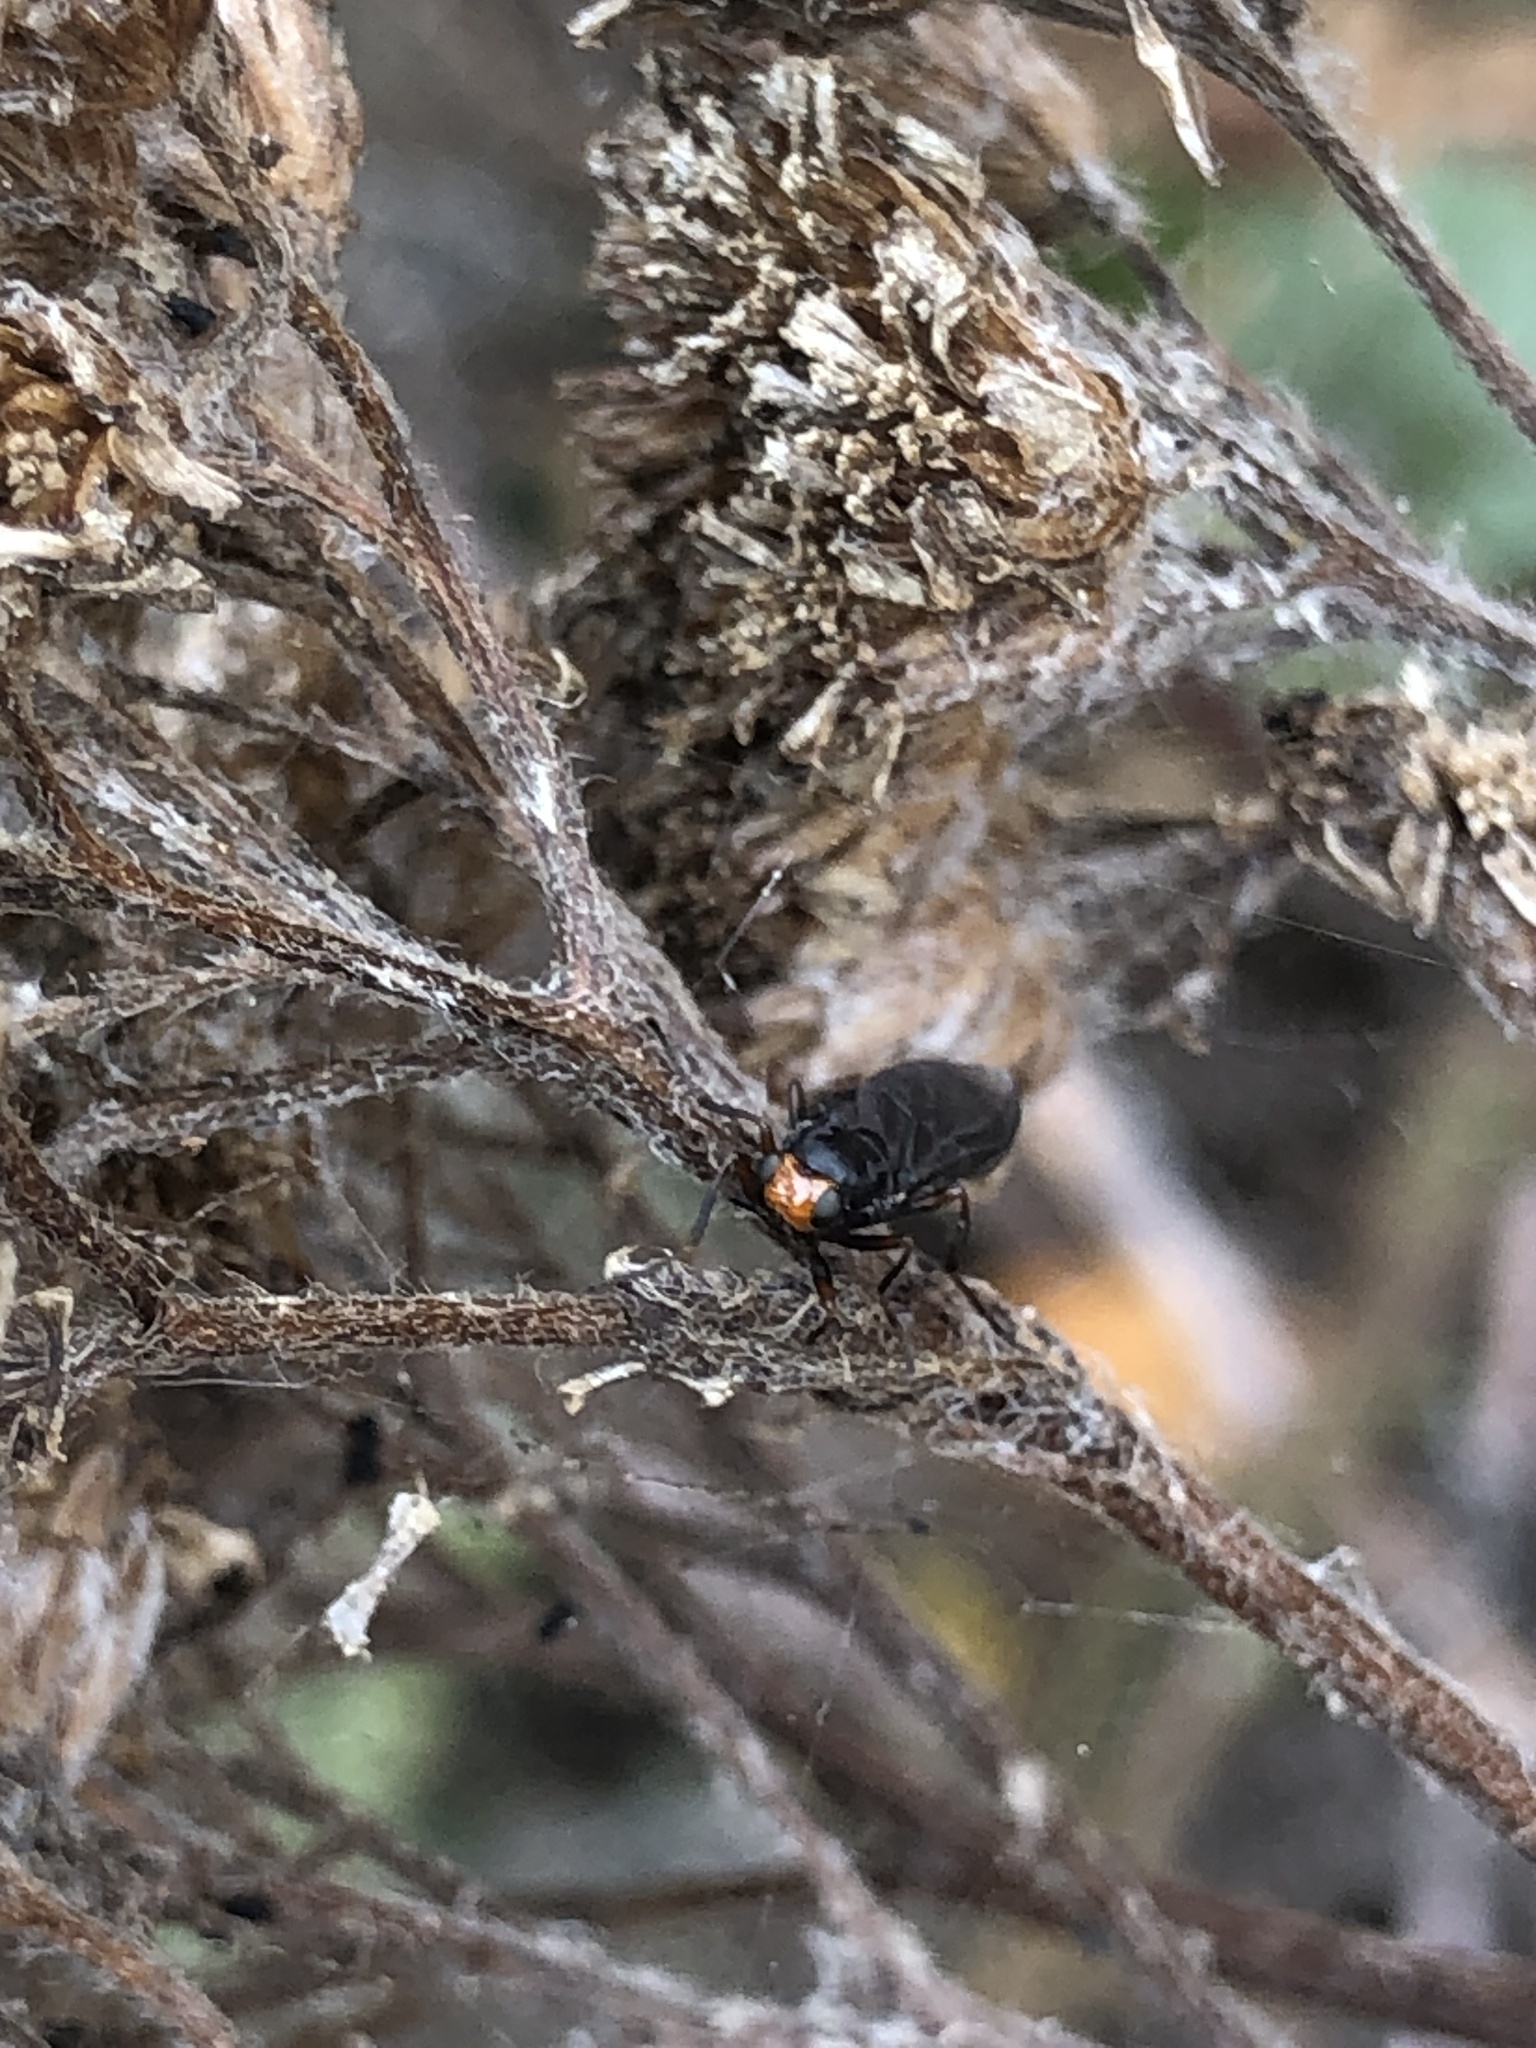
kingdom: Animalia
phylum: Arthropoda
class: Insecta
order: Diptera
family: Stratiomyidae
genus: Inopus
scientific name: Inopus rubriceps
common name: Soldier fly
